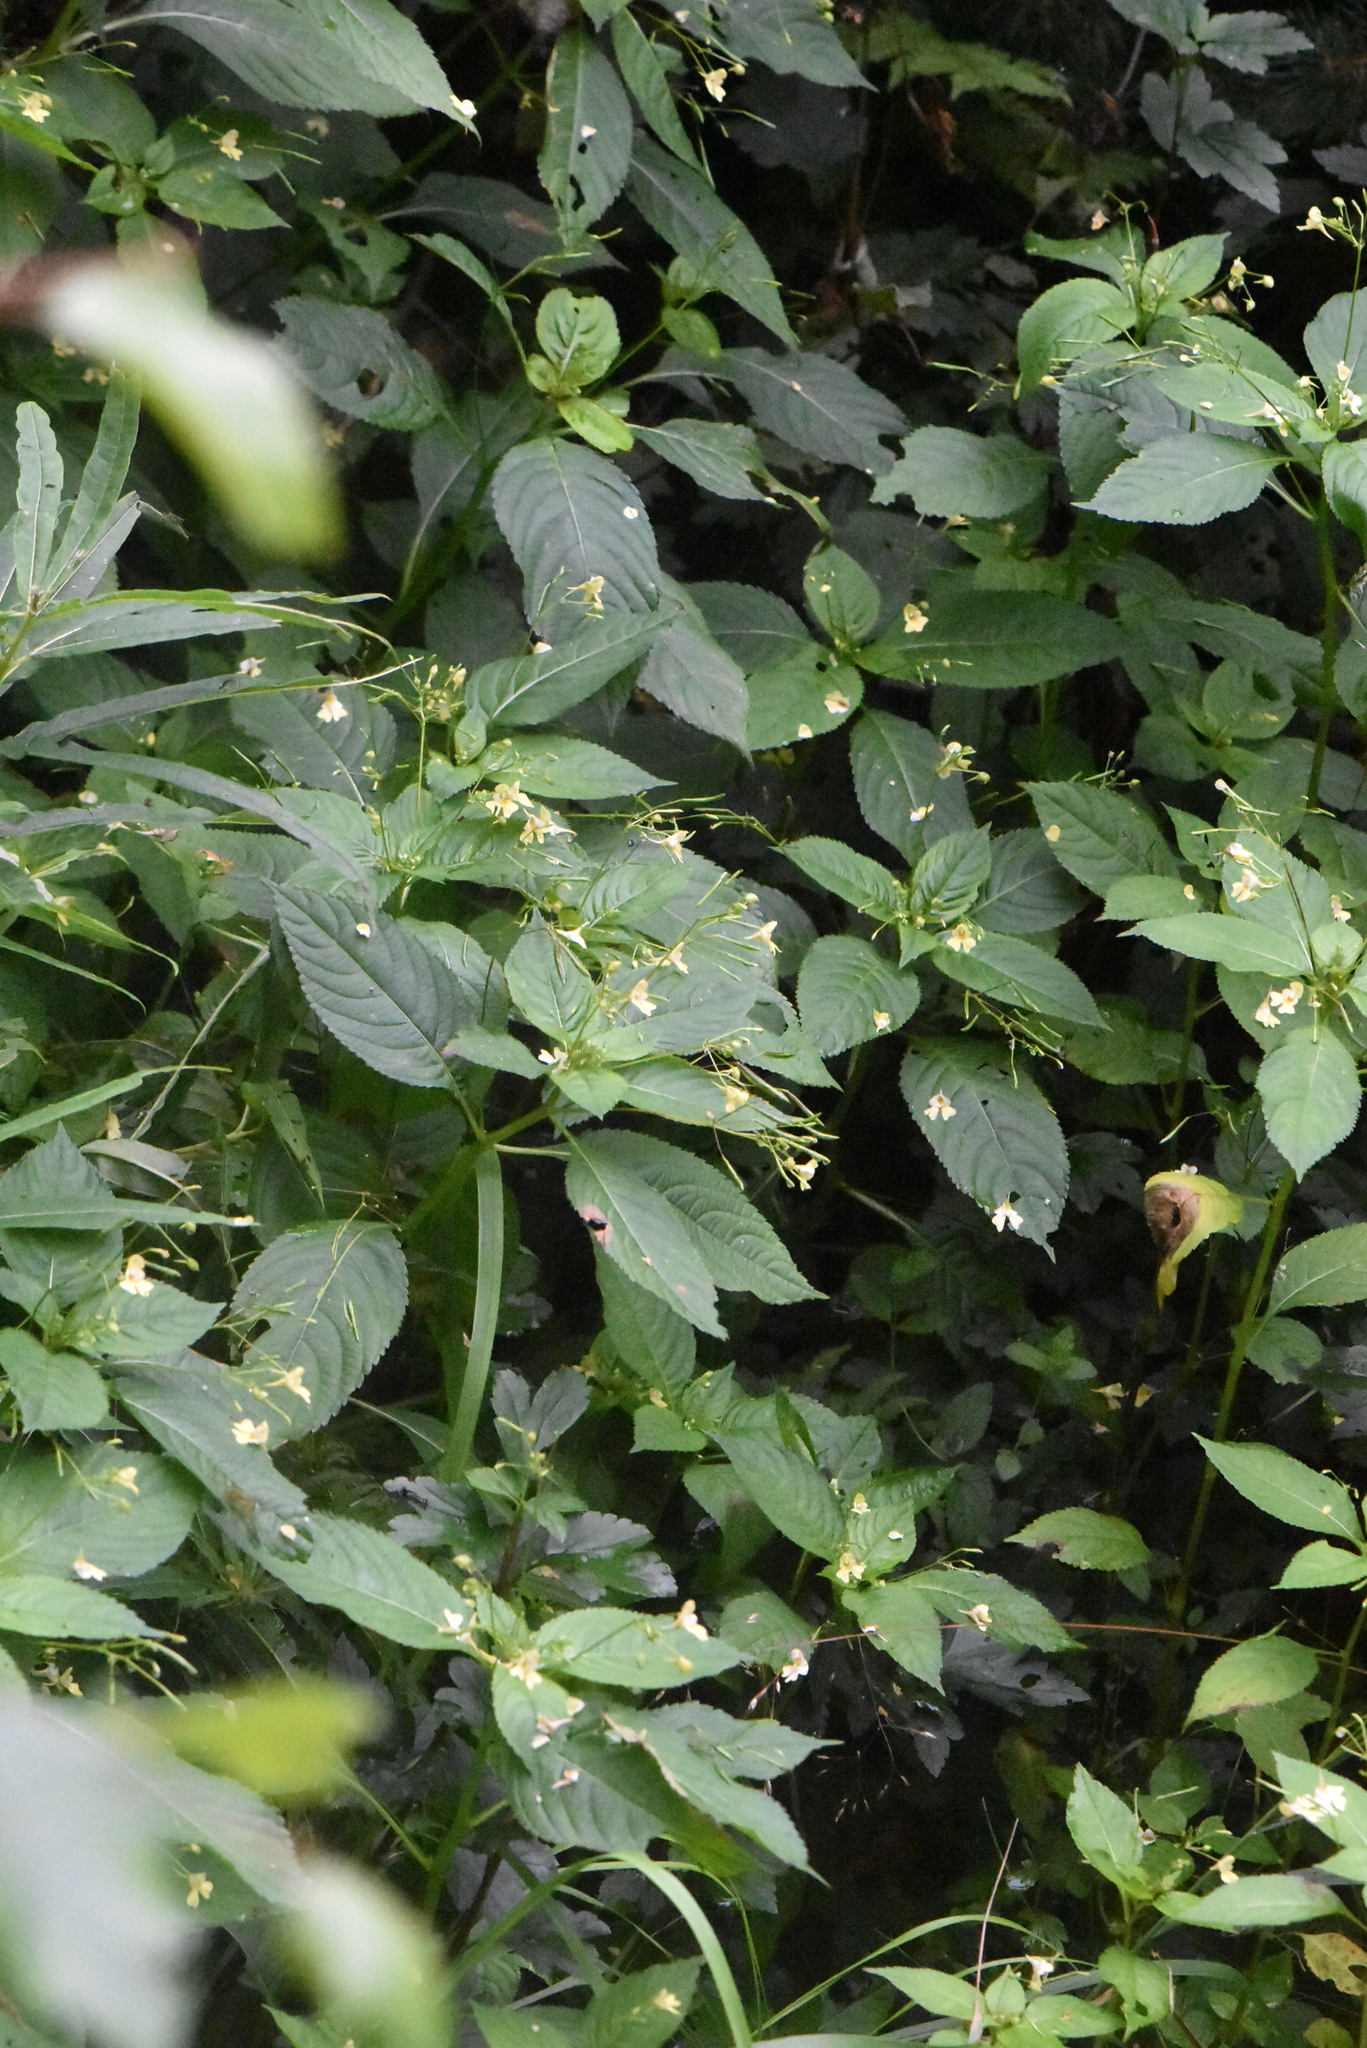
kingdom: Plantae
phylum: Tracheophyta
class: Magnoliopsida
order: Ericales
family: Balsaminaceae
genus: Impatiens
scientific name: Impatiens parviflora
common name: Small balsam
